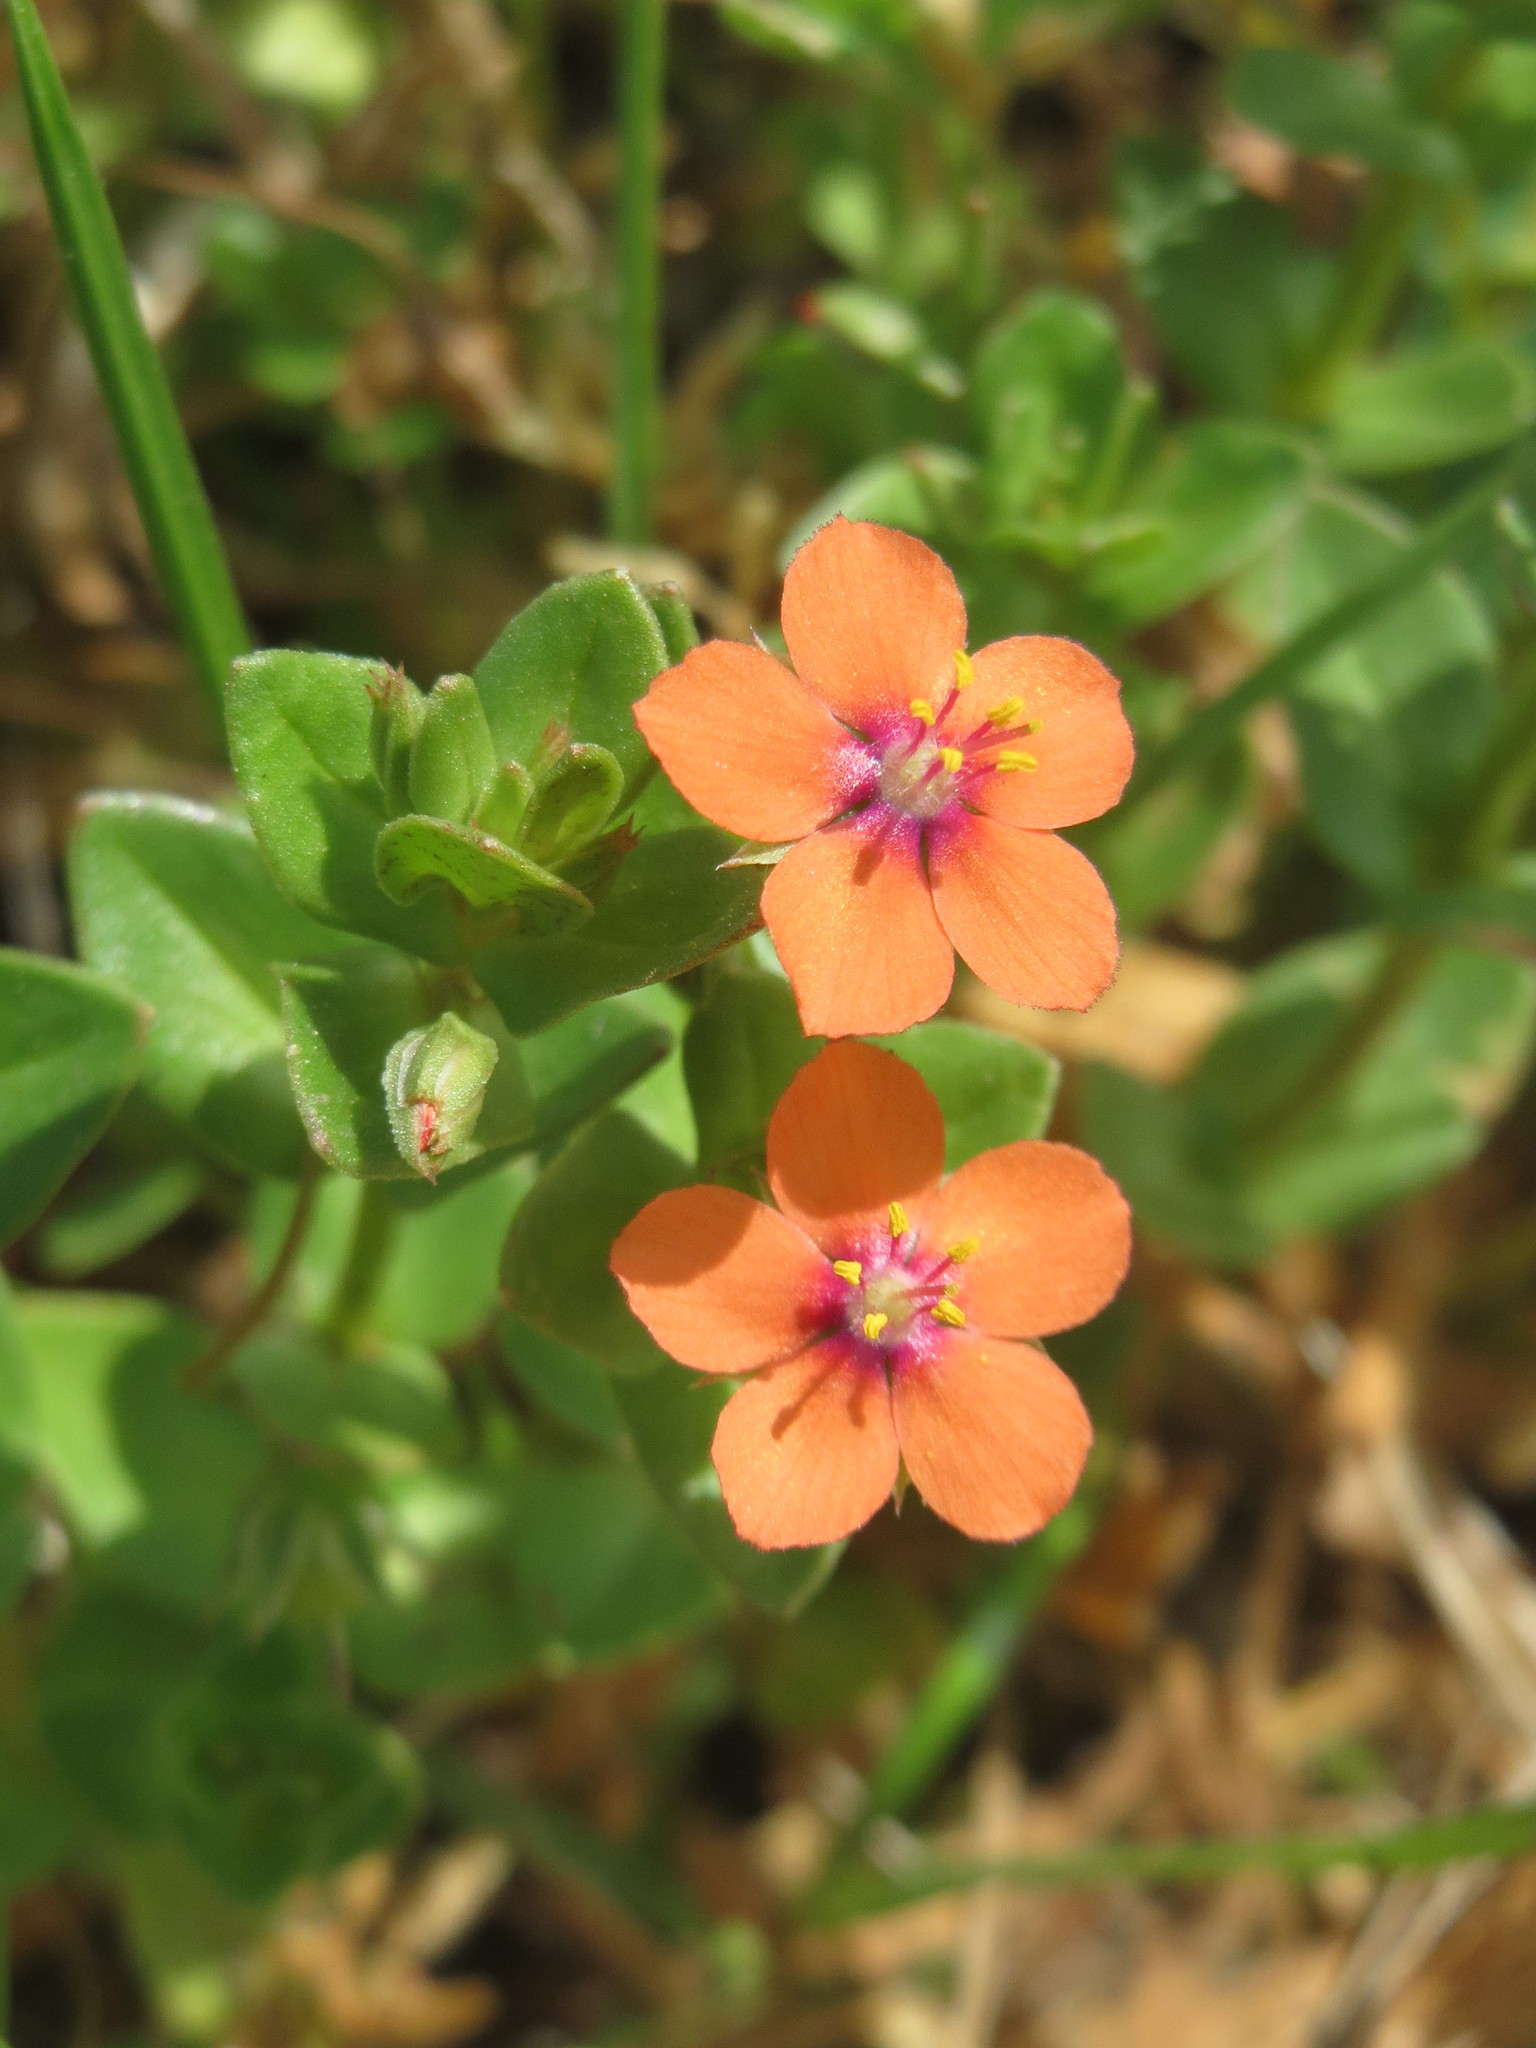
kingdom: Plantae
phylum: Tracheophyta
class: Magnoliopsida
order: Ericales
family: Primulaceae
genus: Lysimachia
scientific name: Lysimachia arvensis
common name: Scarlet pimpernel
